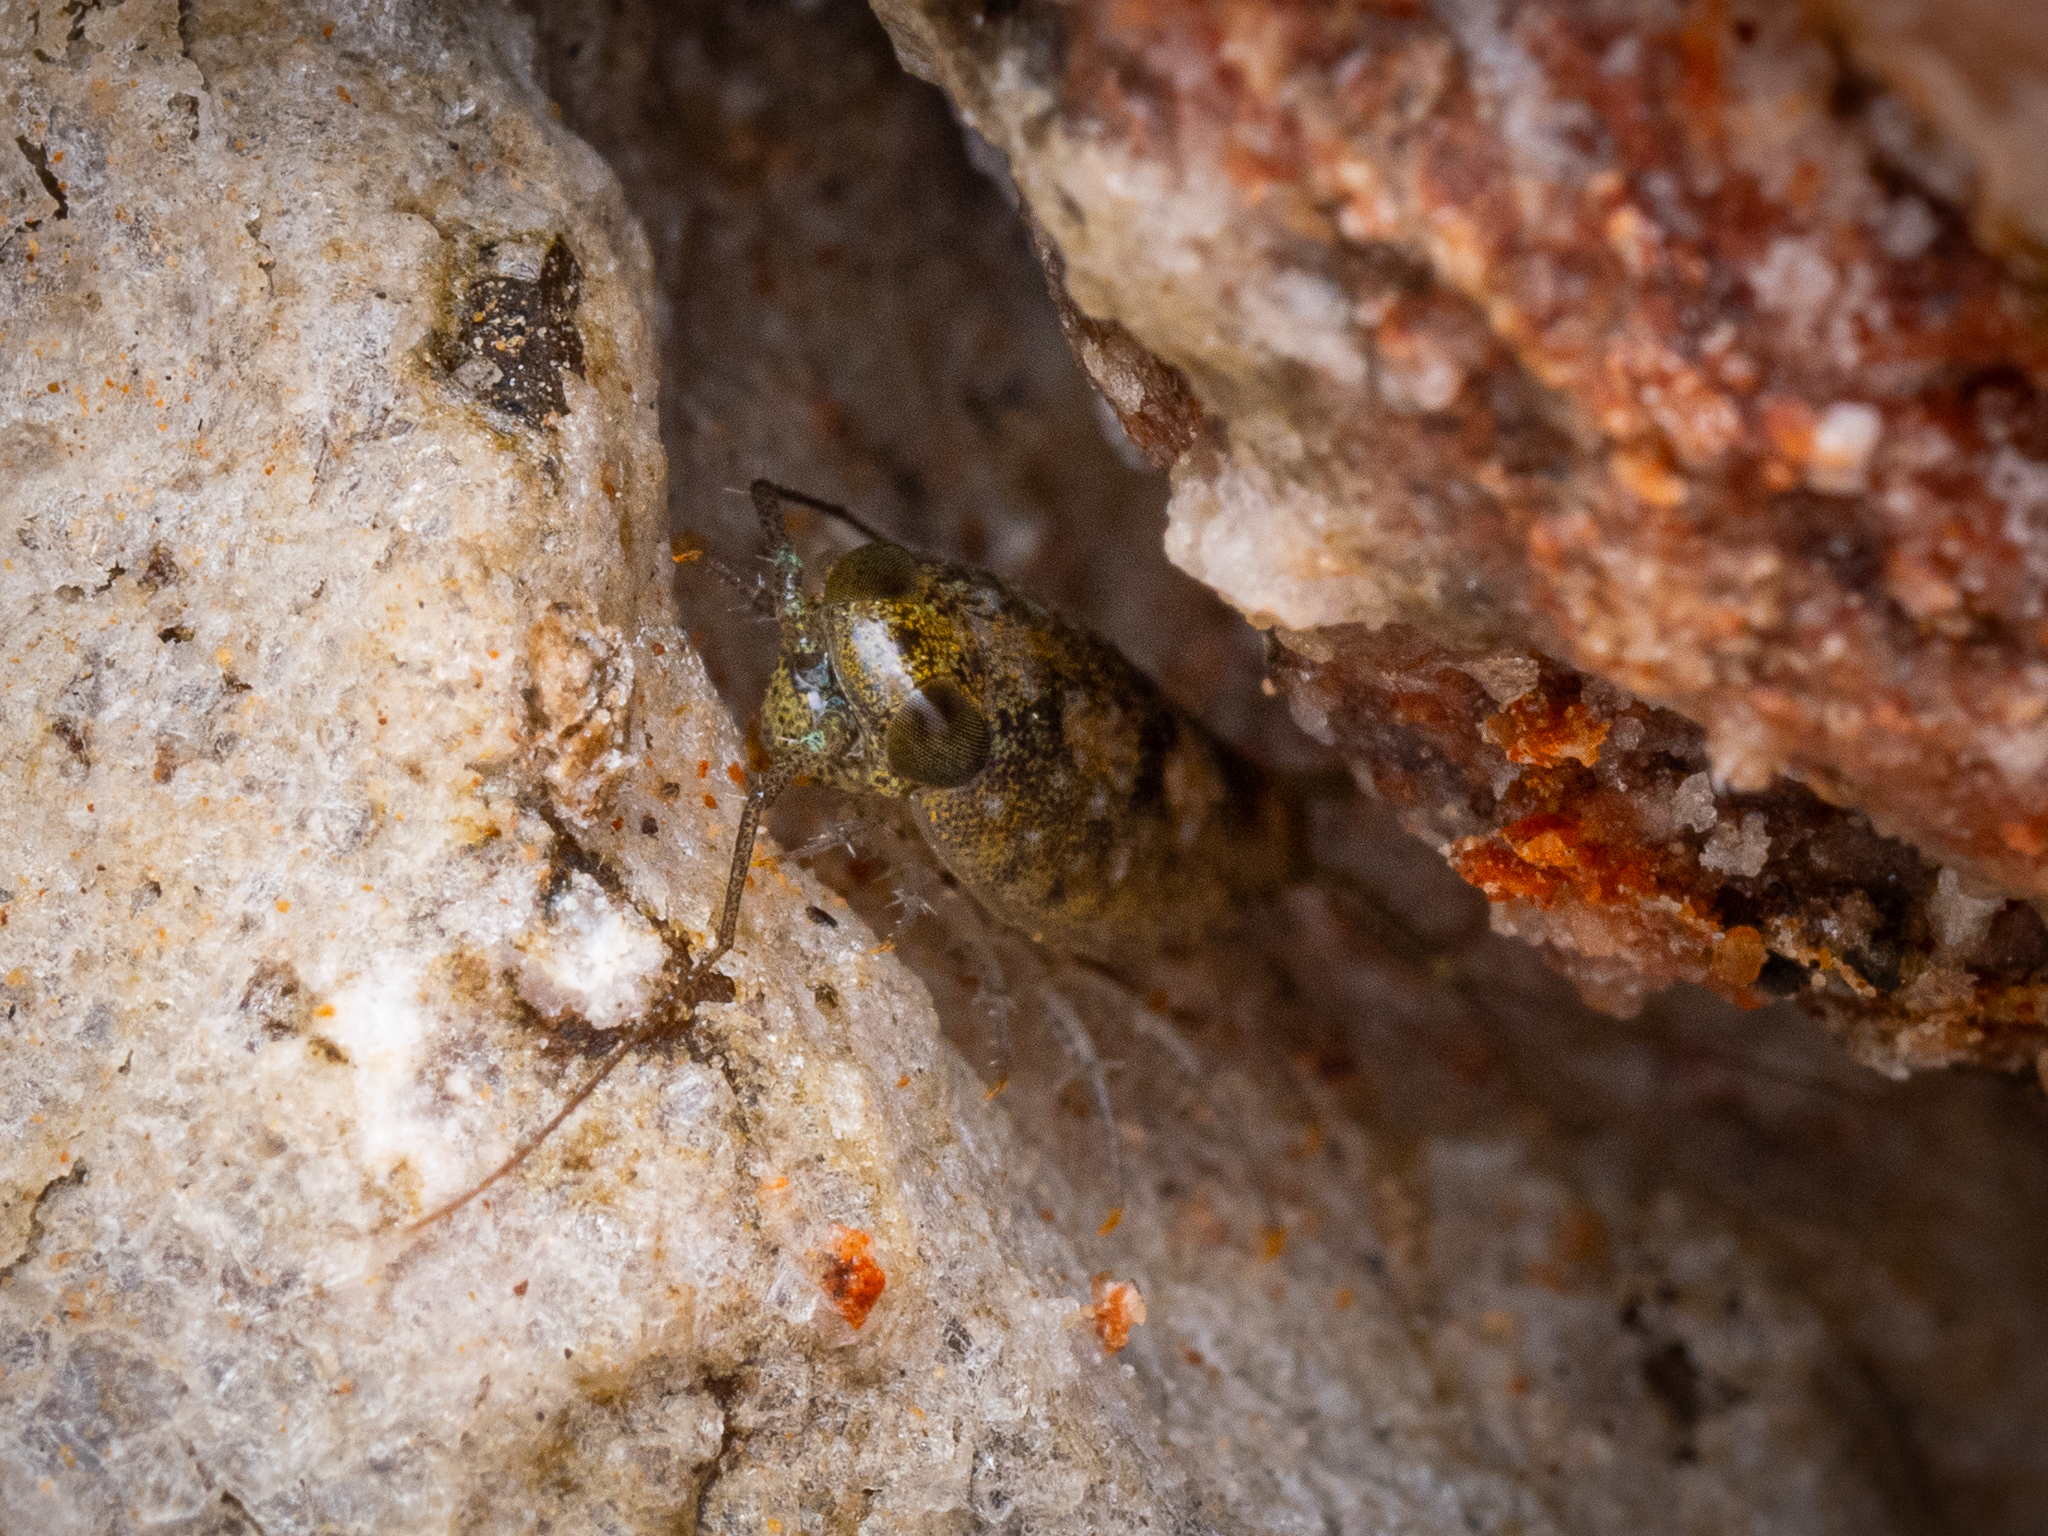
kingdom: Animalia
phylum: Arthropoda
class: Malacostraca
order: Isopoda
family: Ligiidae
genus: Ligia
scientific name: Ligia italica
